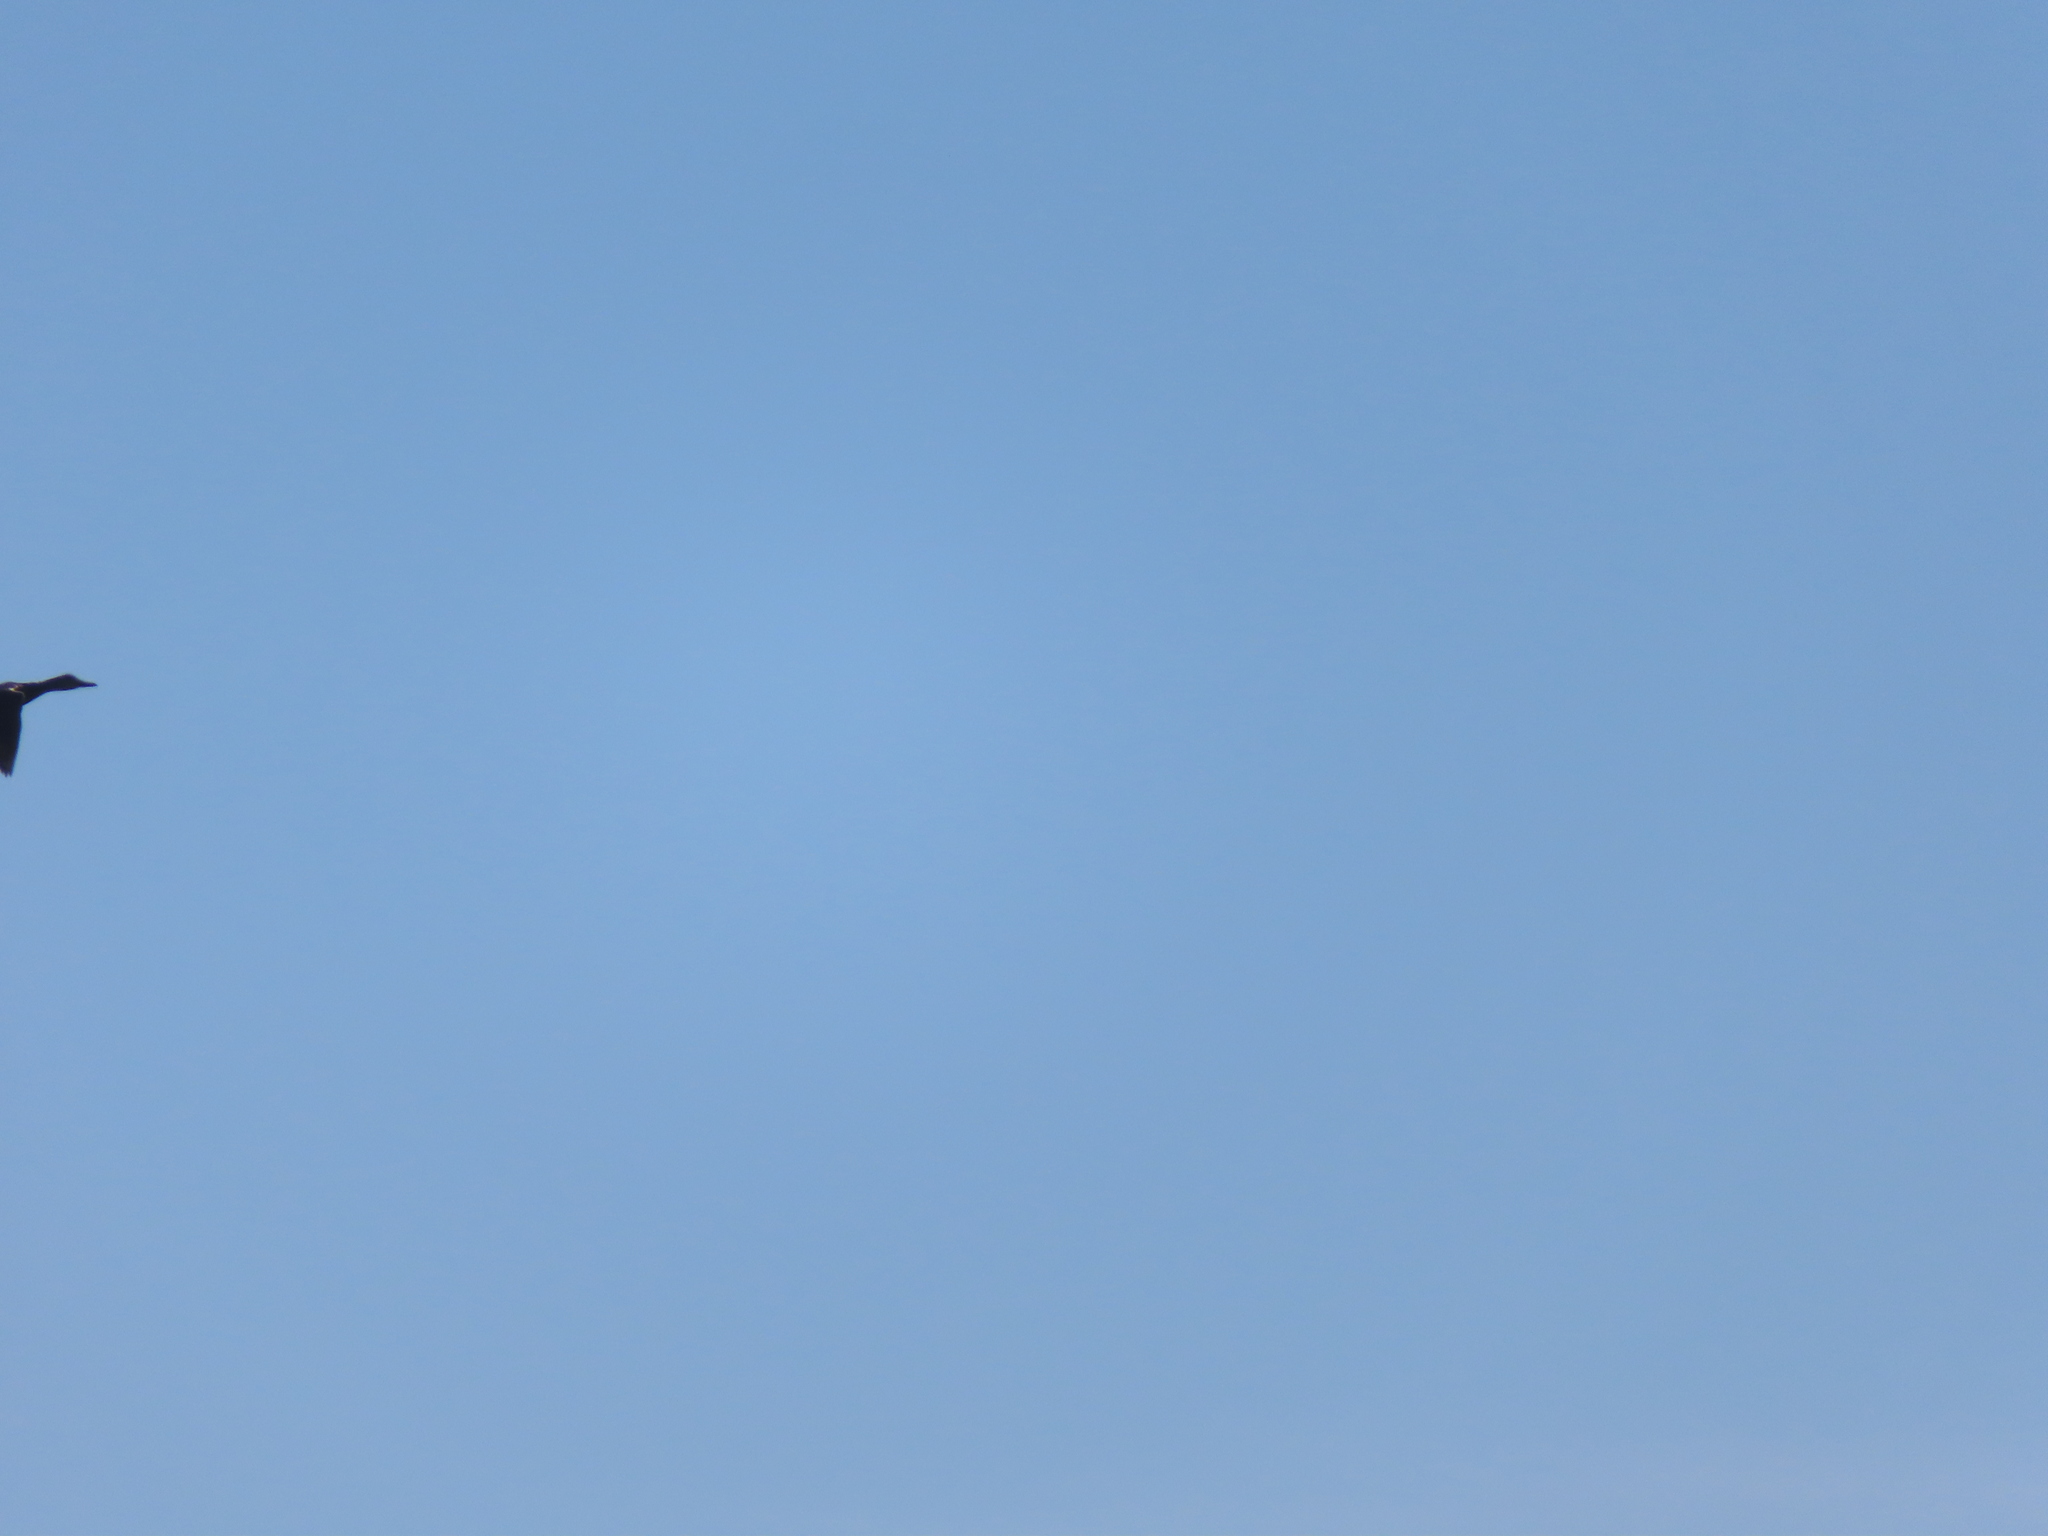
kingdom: Animalia
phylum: Chordata
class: Aves
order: Anseriformes
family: Anatidae
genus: Branta
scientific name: Branta canadensis
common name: Canada goose
